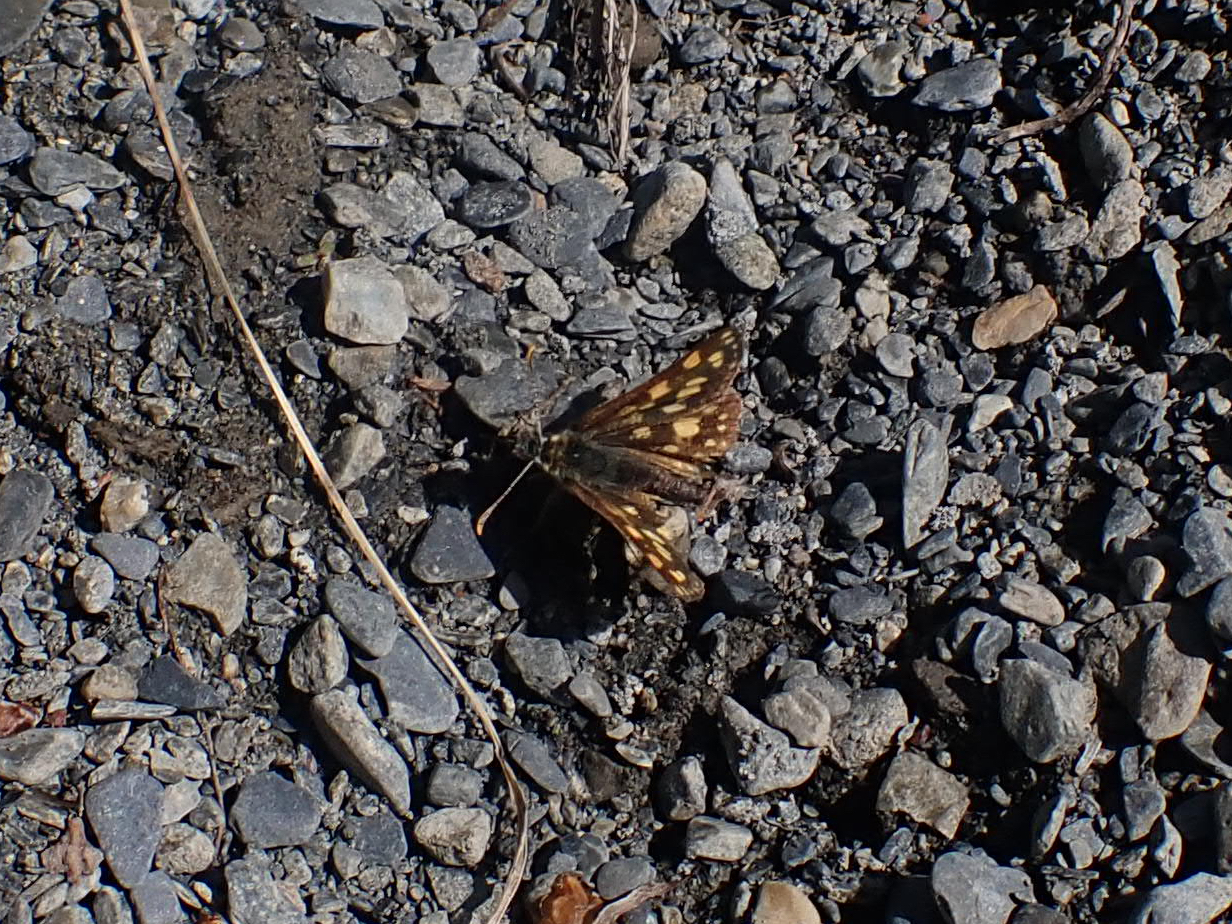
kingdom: Animalia
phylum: Arthropoda
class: Insecta
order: Lepidoptera
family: Hesperiidae
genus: Carterocephalus
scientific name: Carterocephalus skada
